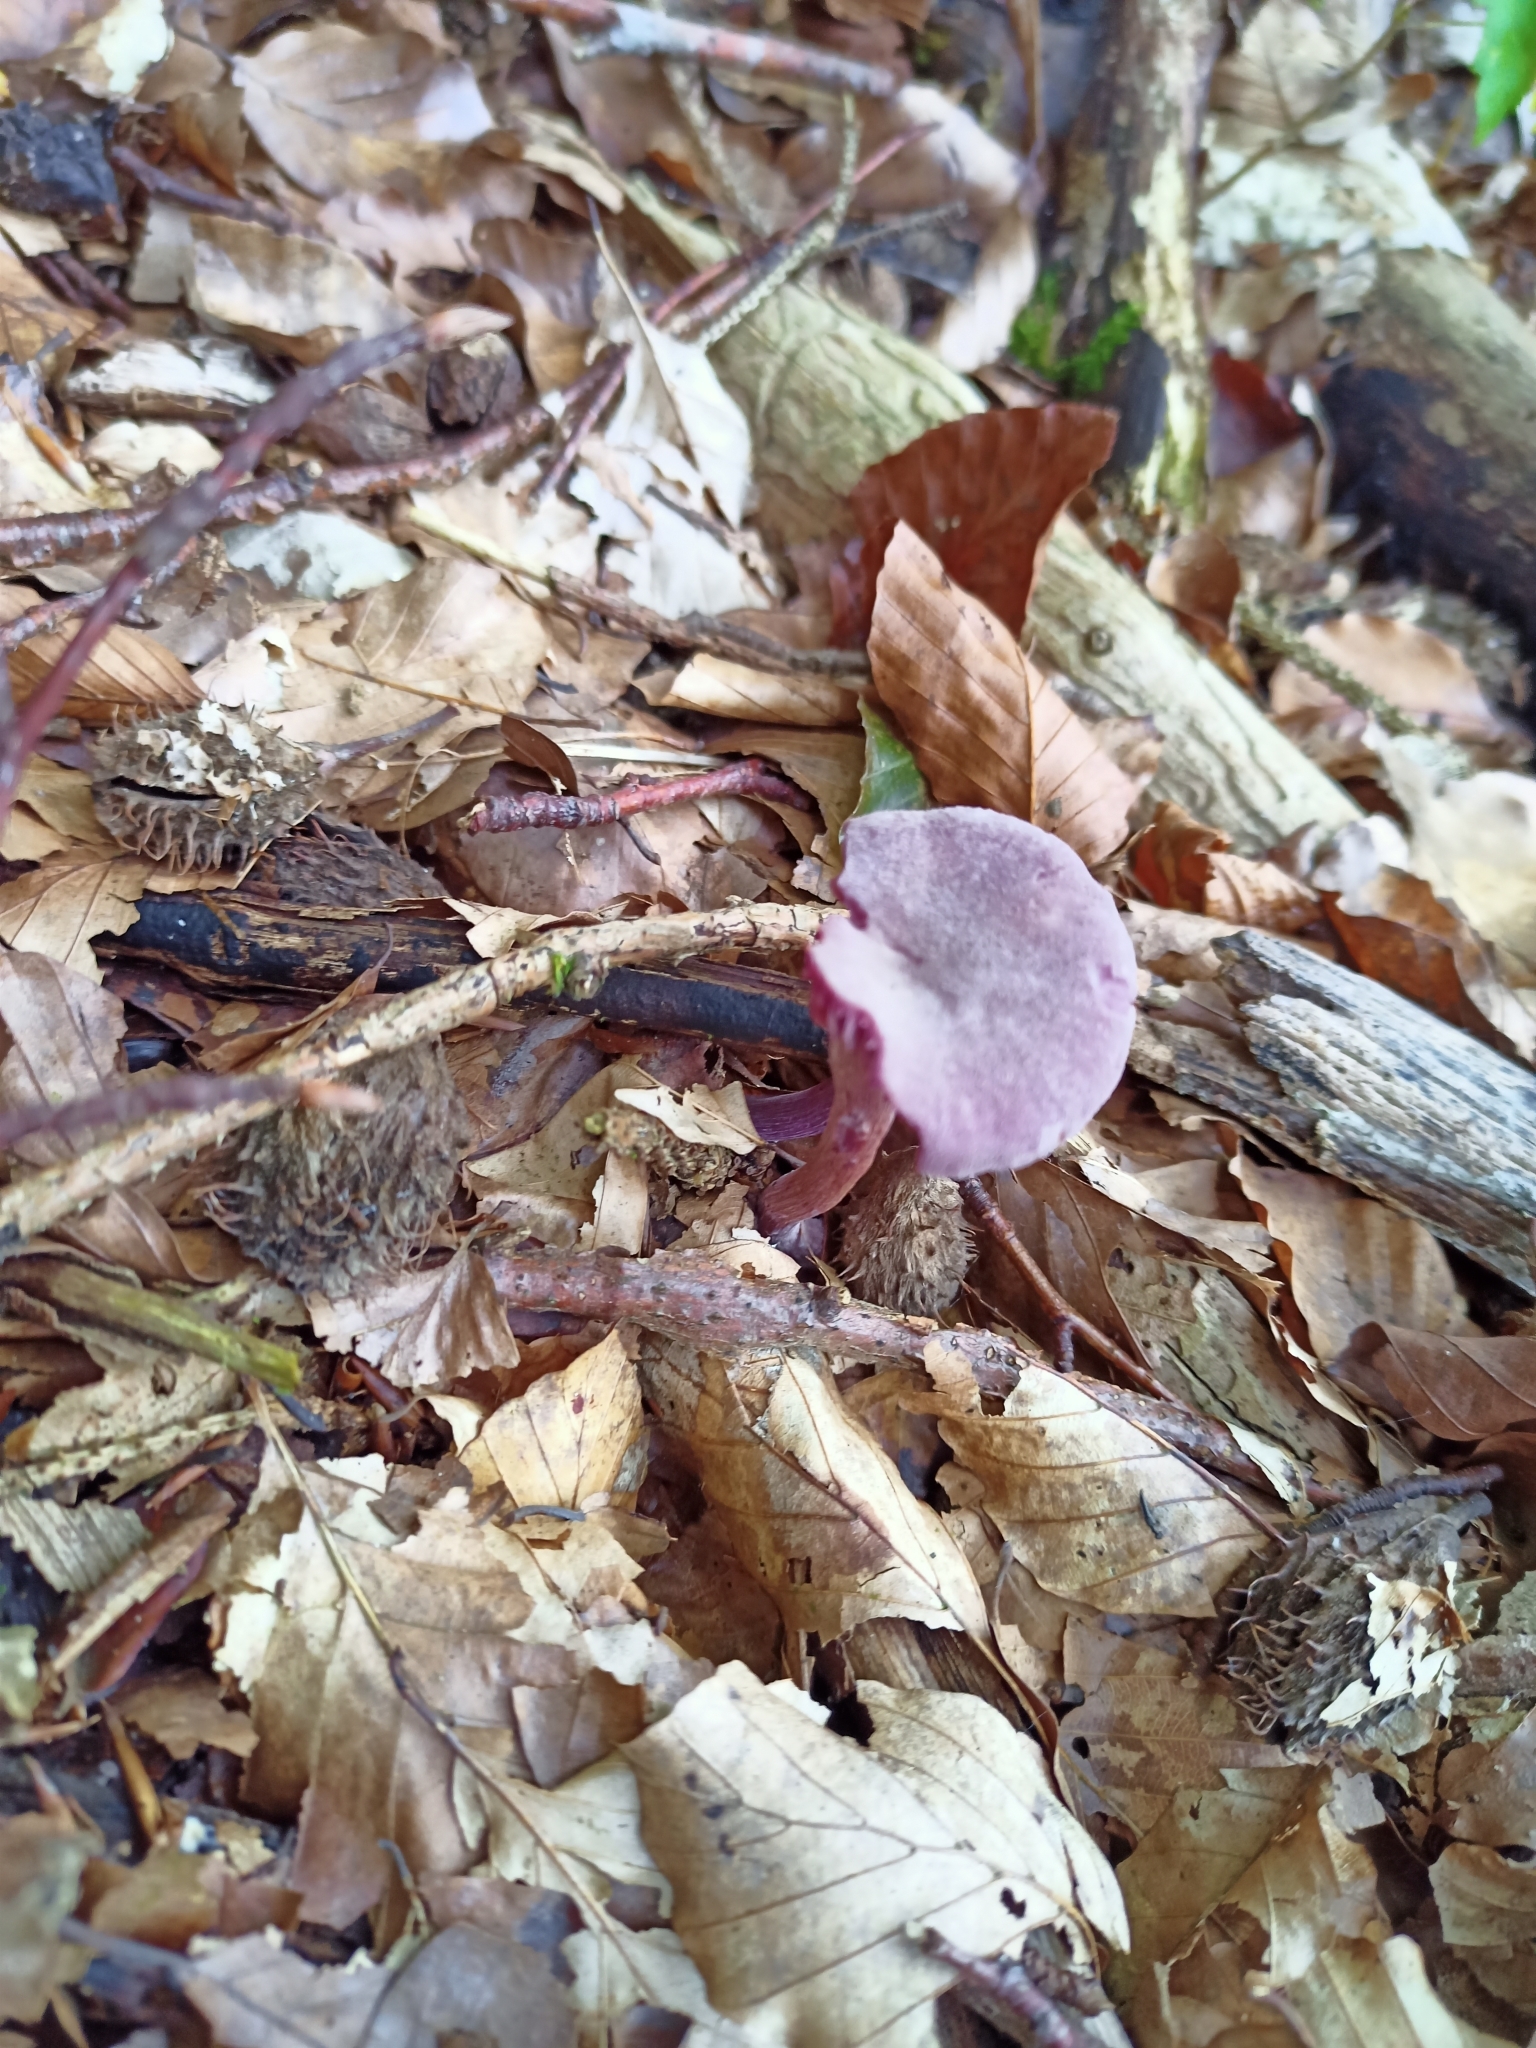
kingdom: Fungi
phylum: Basidiomycota
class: Agaricomycetes
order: Agaricales
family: Hydnangiaceae
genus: Laccaria
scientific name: Laccaria amethystina
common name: Amethyst deceiver
